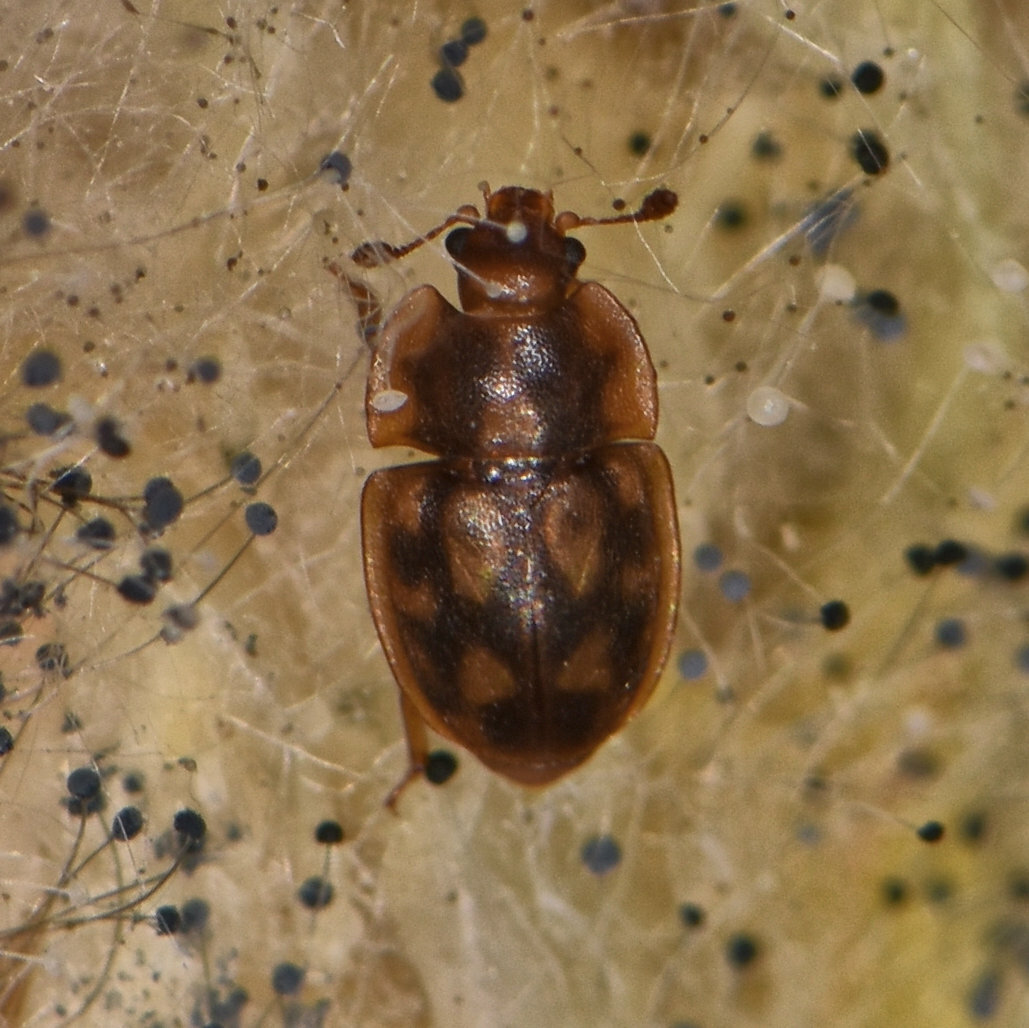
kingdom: Animalia
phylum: Arthropoda
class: Insecta
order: Coleoptera
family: Nitidulidae
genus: Epuraea
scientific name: Epuraea peltoides
